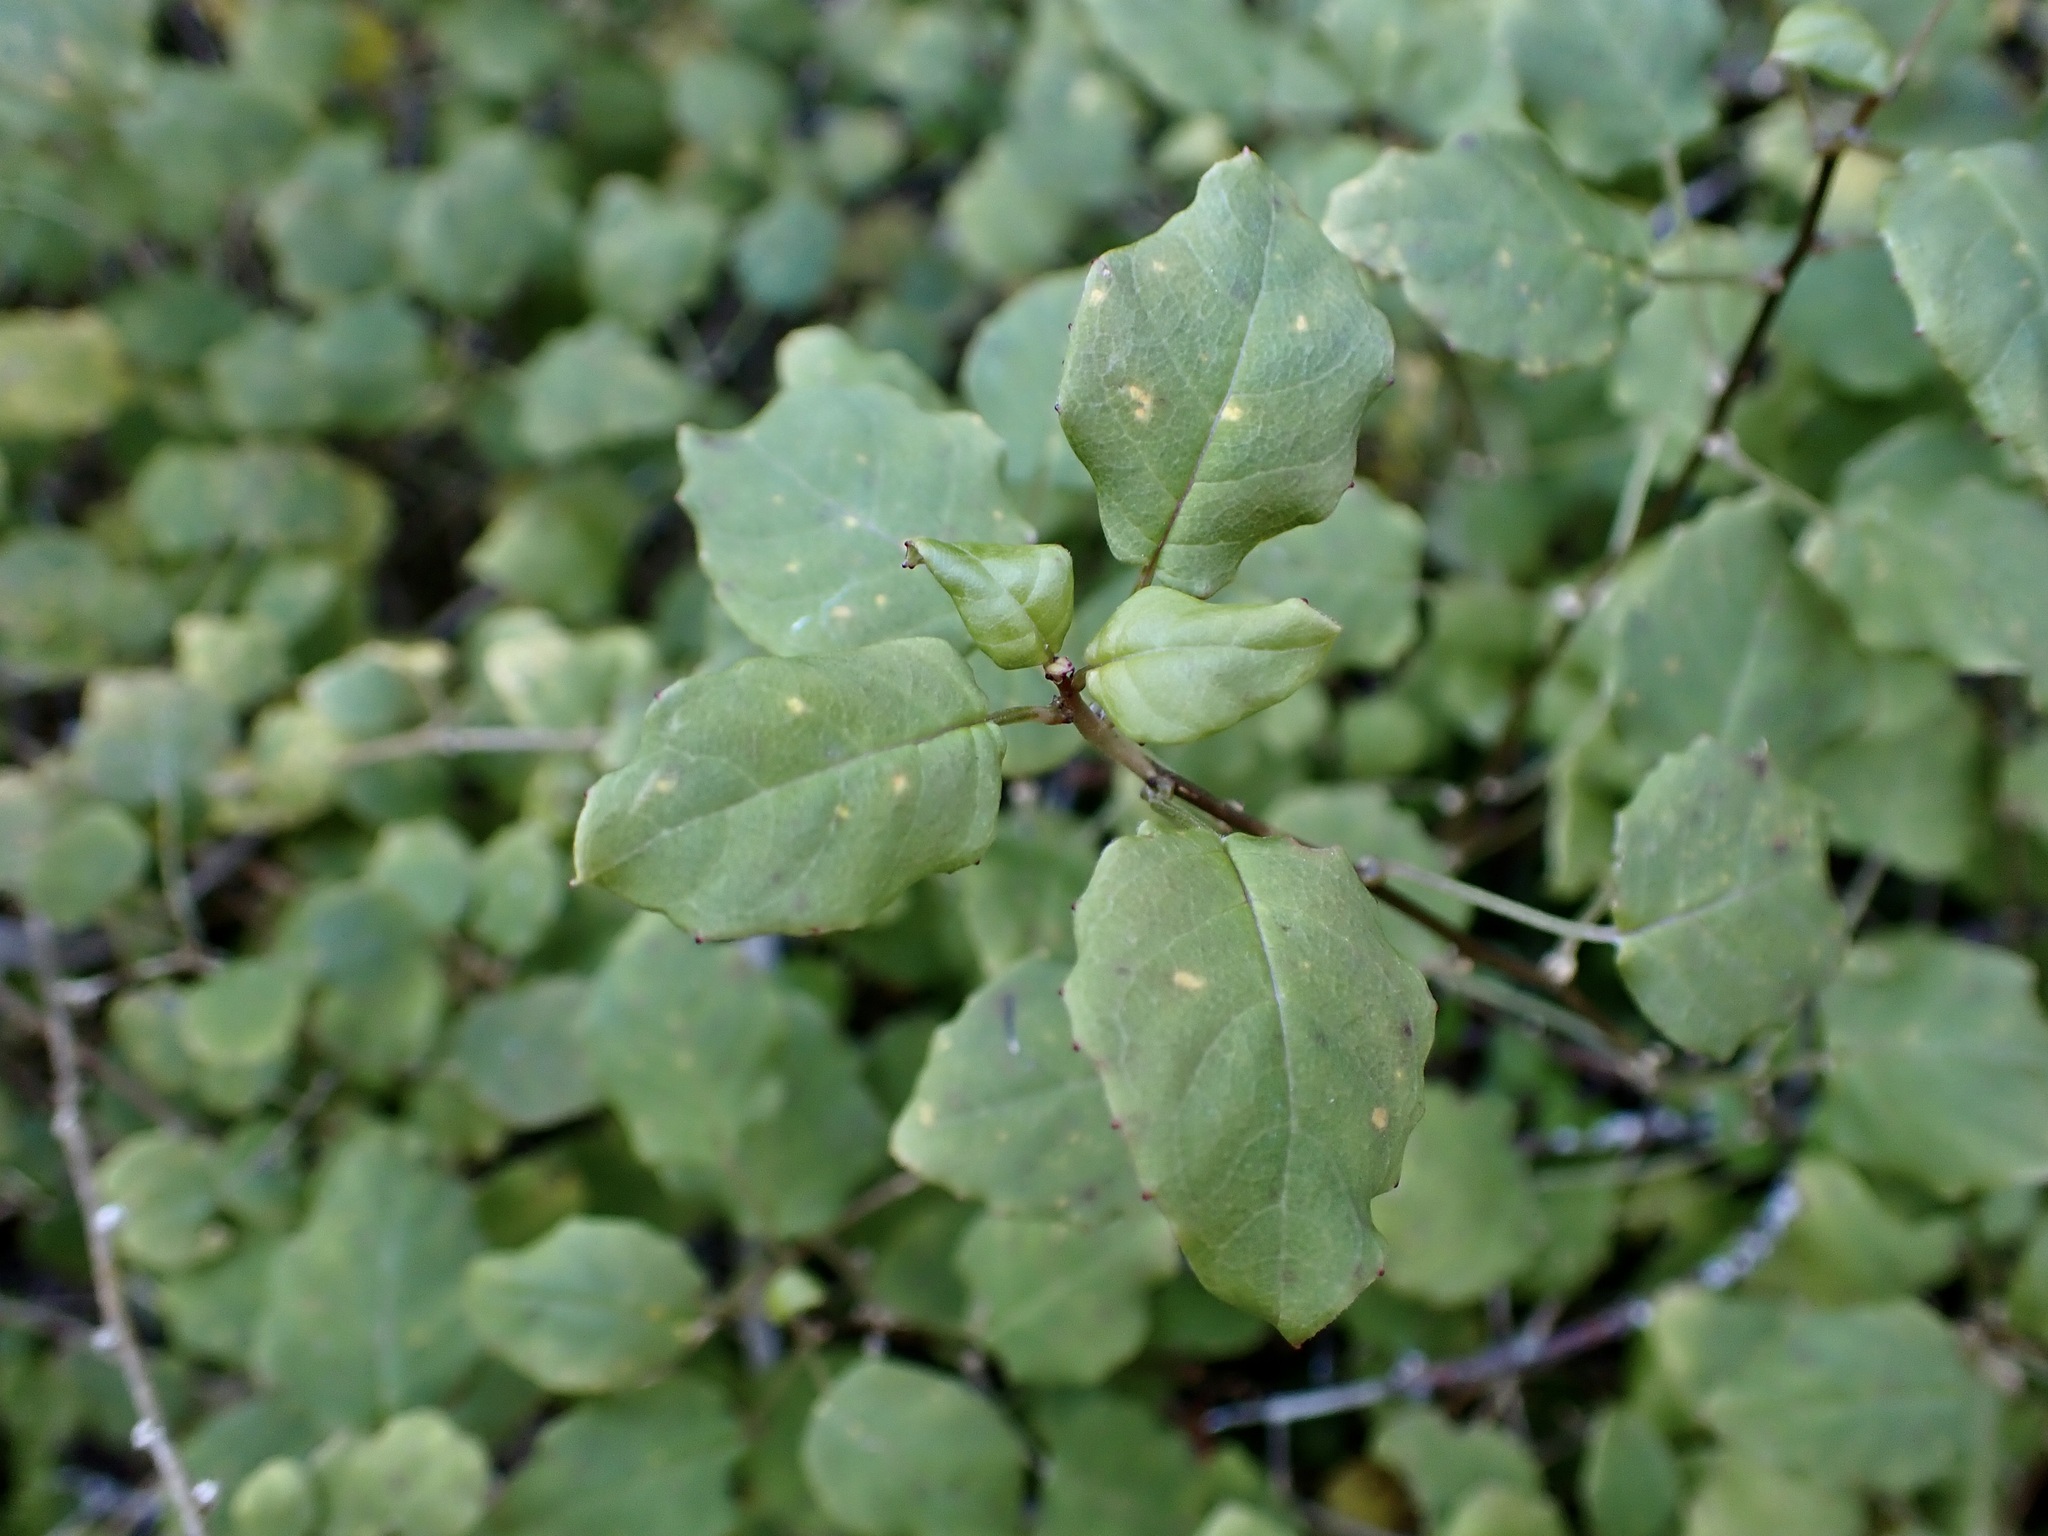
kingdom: Plantae
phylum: Tracheophyta
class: Magnoliopsida
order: Myrtales
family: Onagraceae
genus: Fuchsia
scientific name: Fuchsia perscandens
